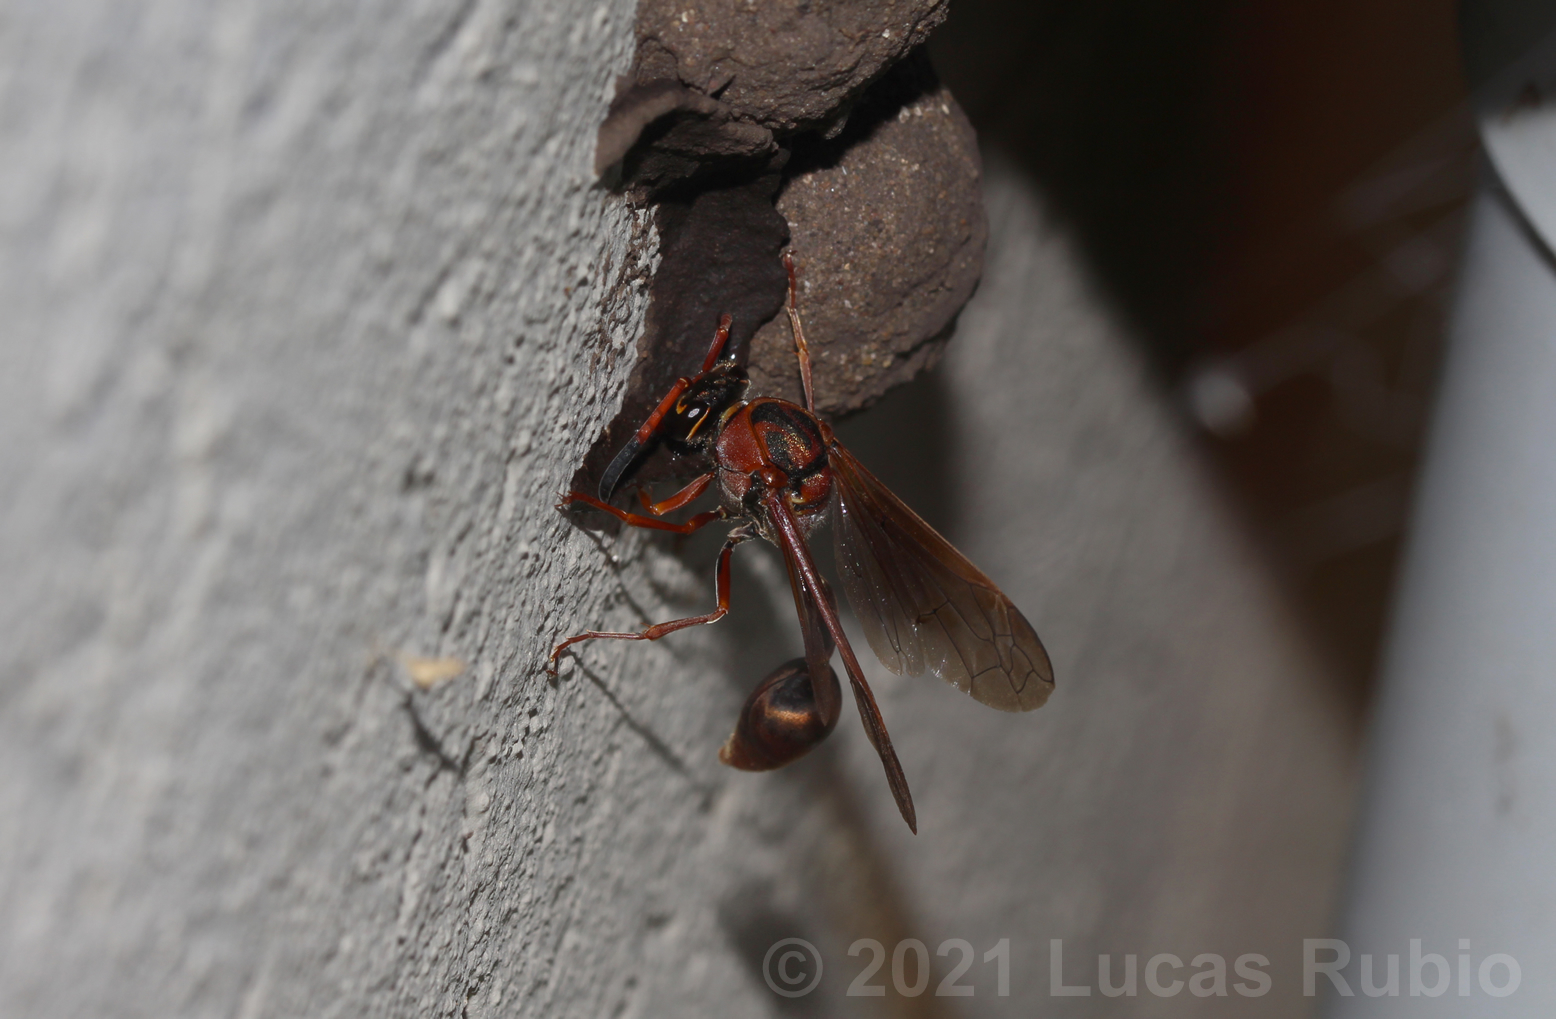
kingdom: Animalia
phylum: Arthropoda
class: Insecta
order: Hymenoptera
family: Eumenidae
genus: Zeta
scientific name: Zeta argillaceum
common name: Potter wasp
